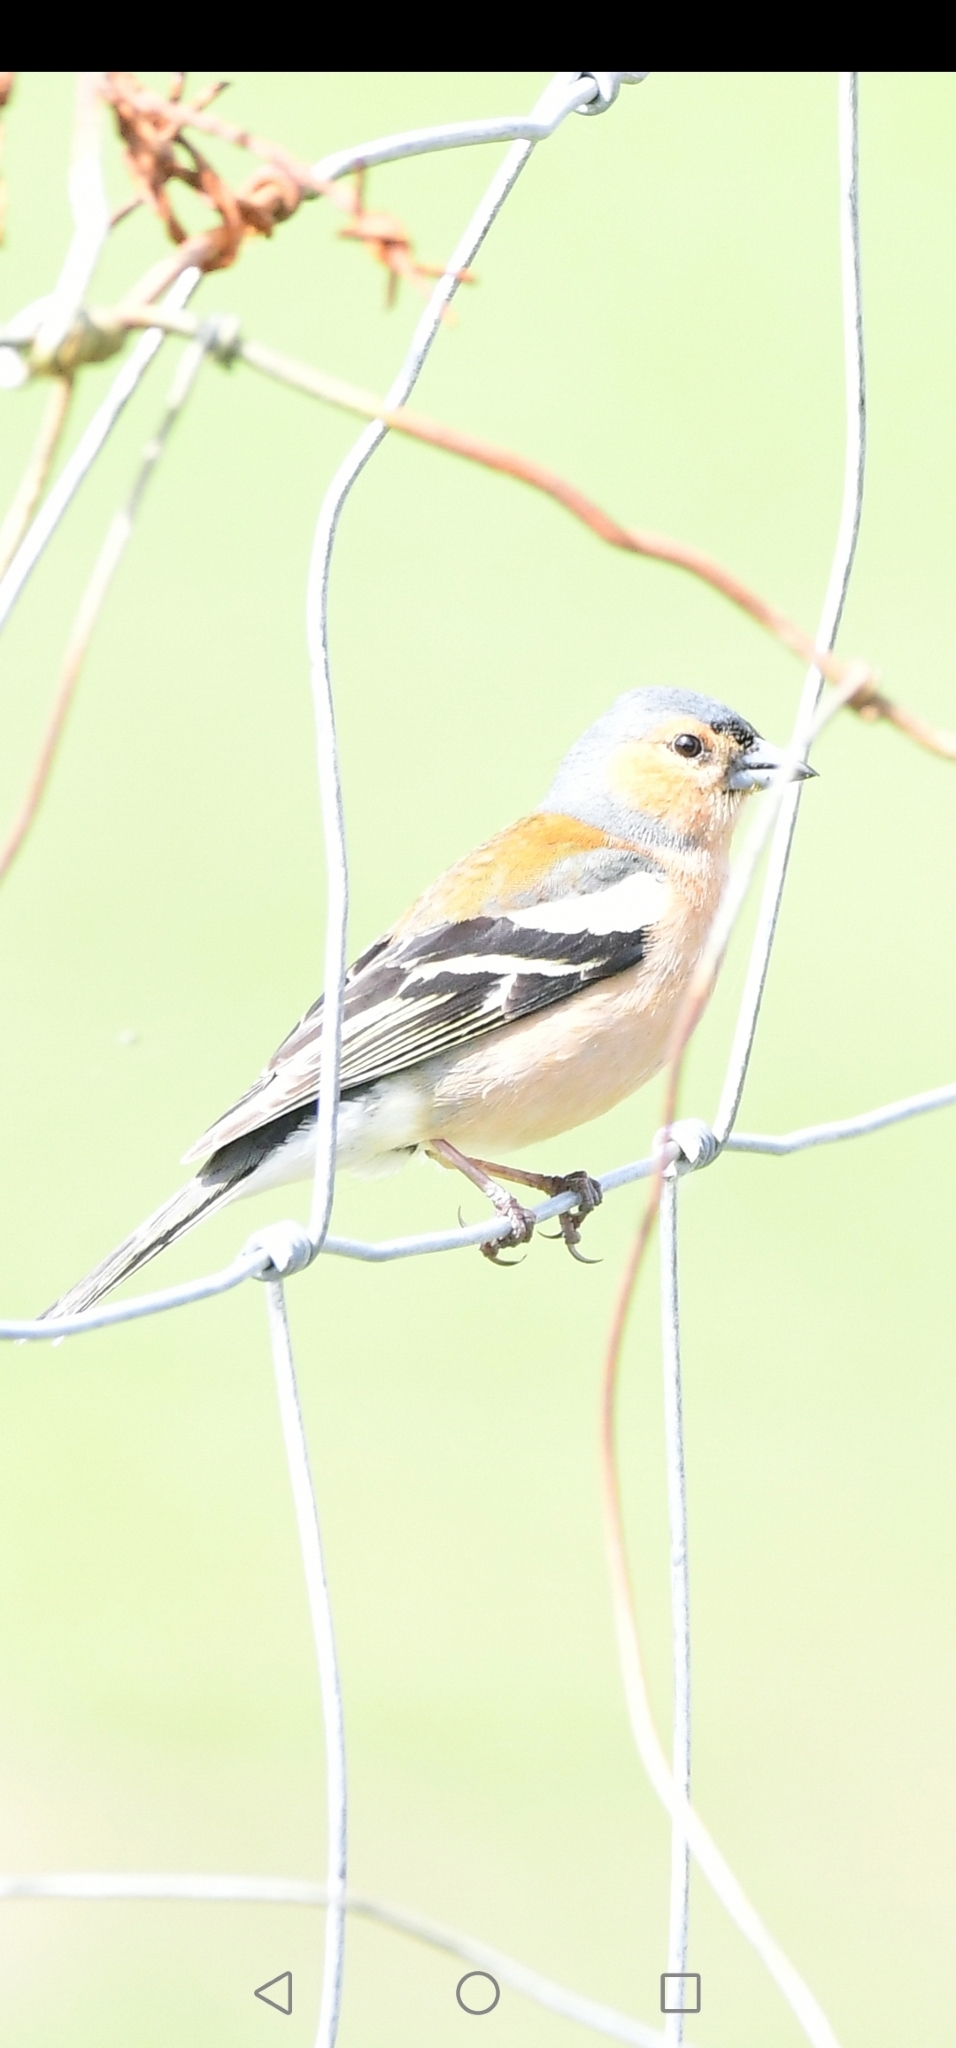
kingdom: Animalia
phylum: Chordata
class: Aves
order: Passeriformes
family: Fringillidae
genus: Fringilla
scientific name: Fringilla coelebs
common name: Common chaffinch
